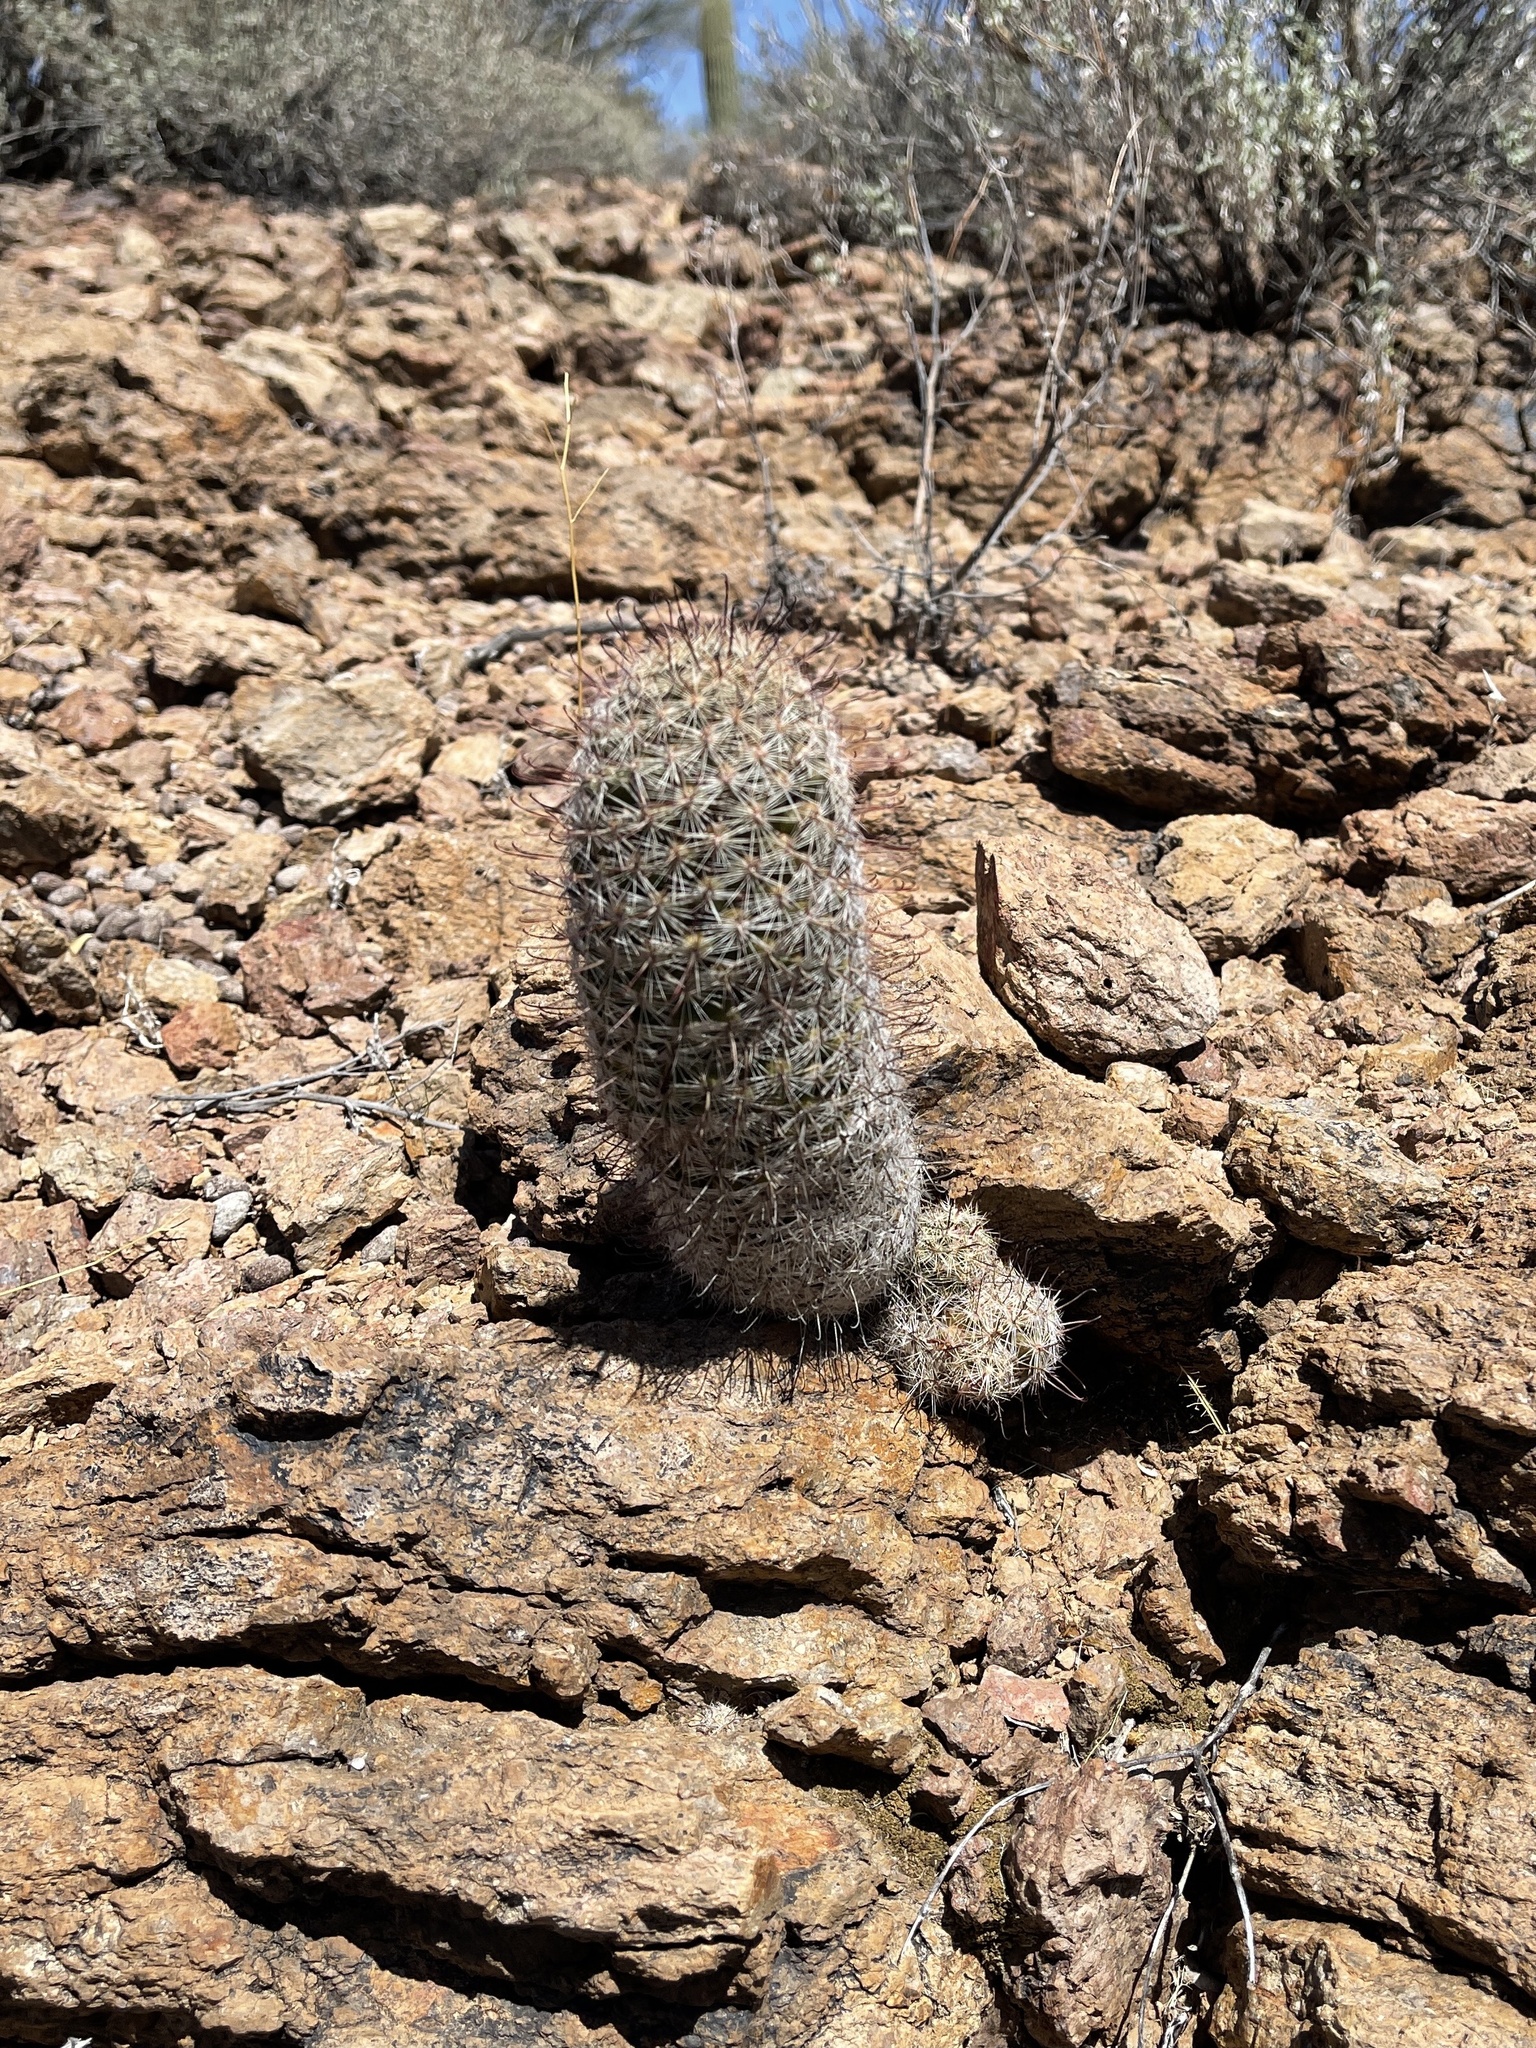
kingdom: Plantae
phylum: Tracheophyta
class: Magnoliopsida
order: Caryophyllales
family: Cactaceae
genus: Cochemiea
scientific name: Cochemiea grahamii
